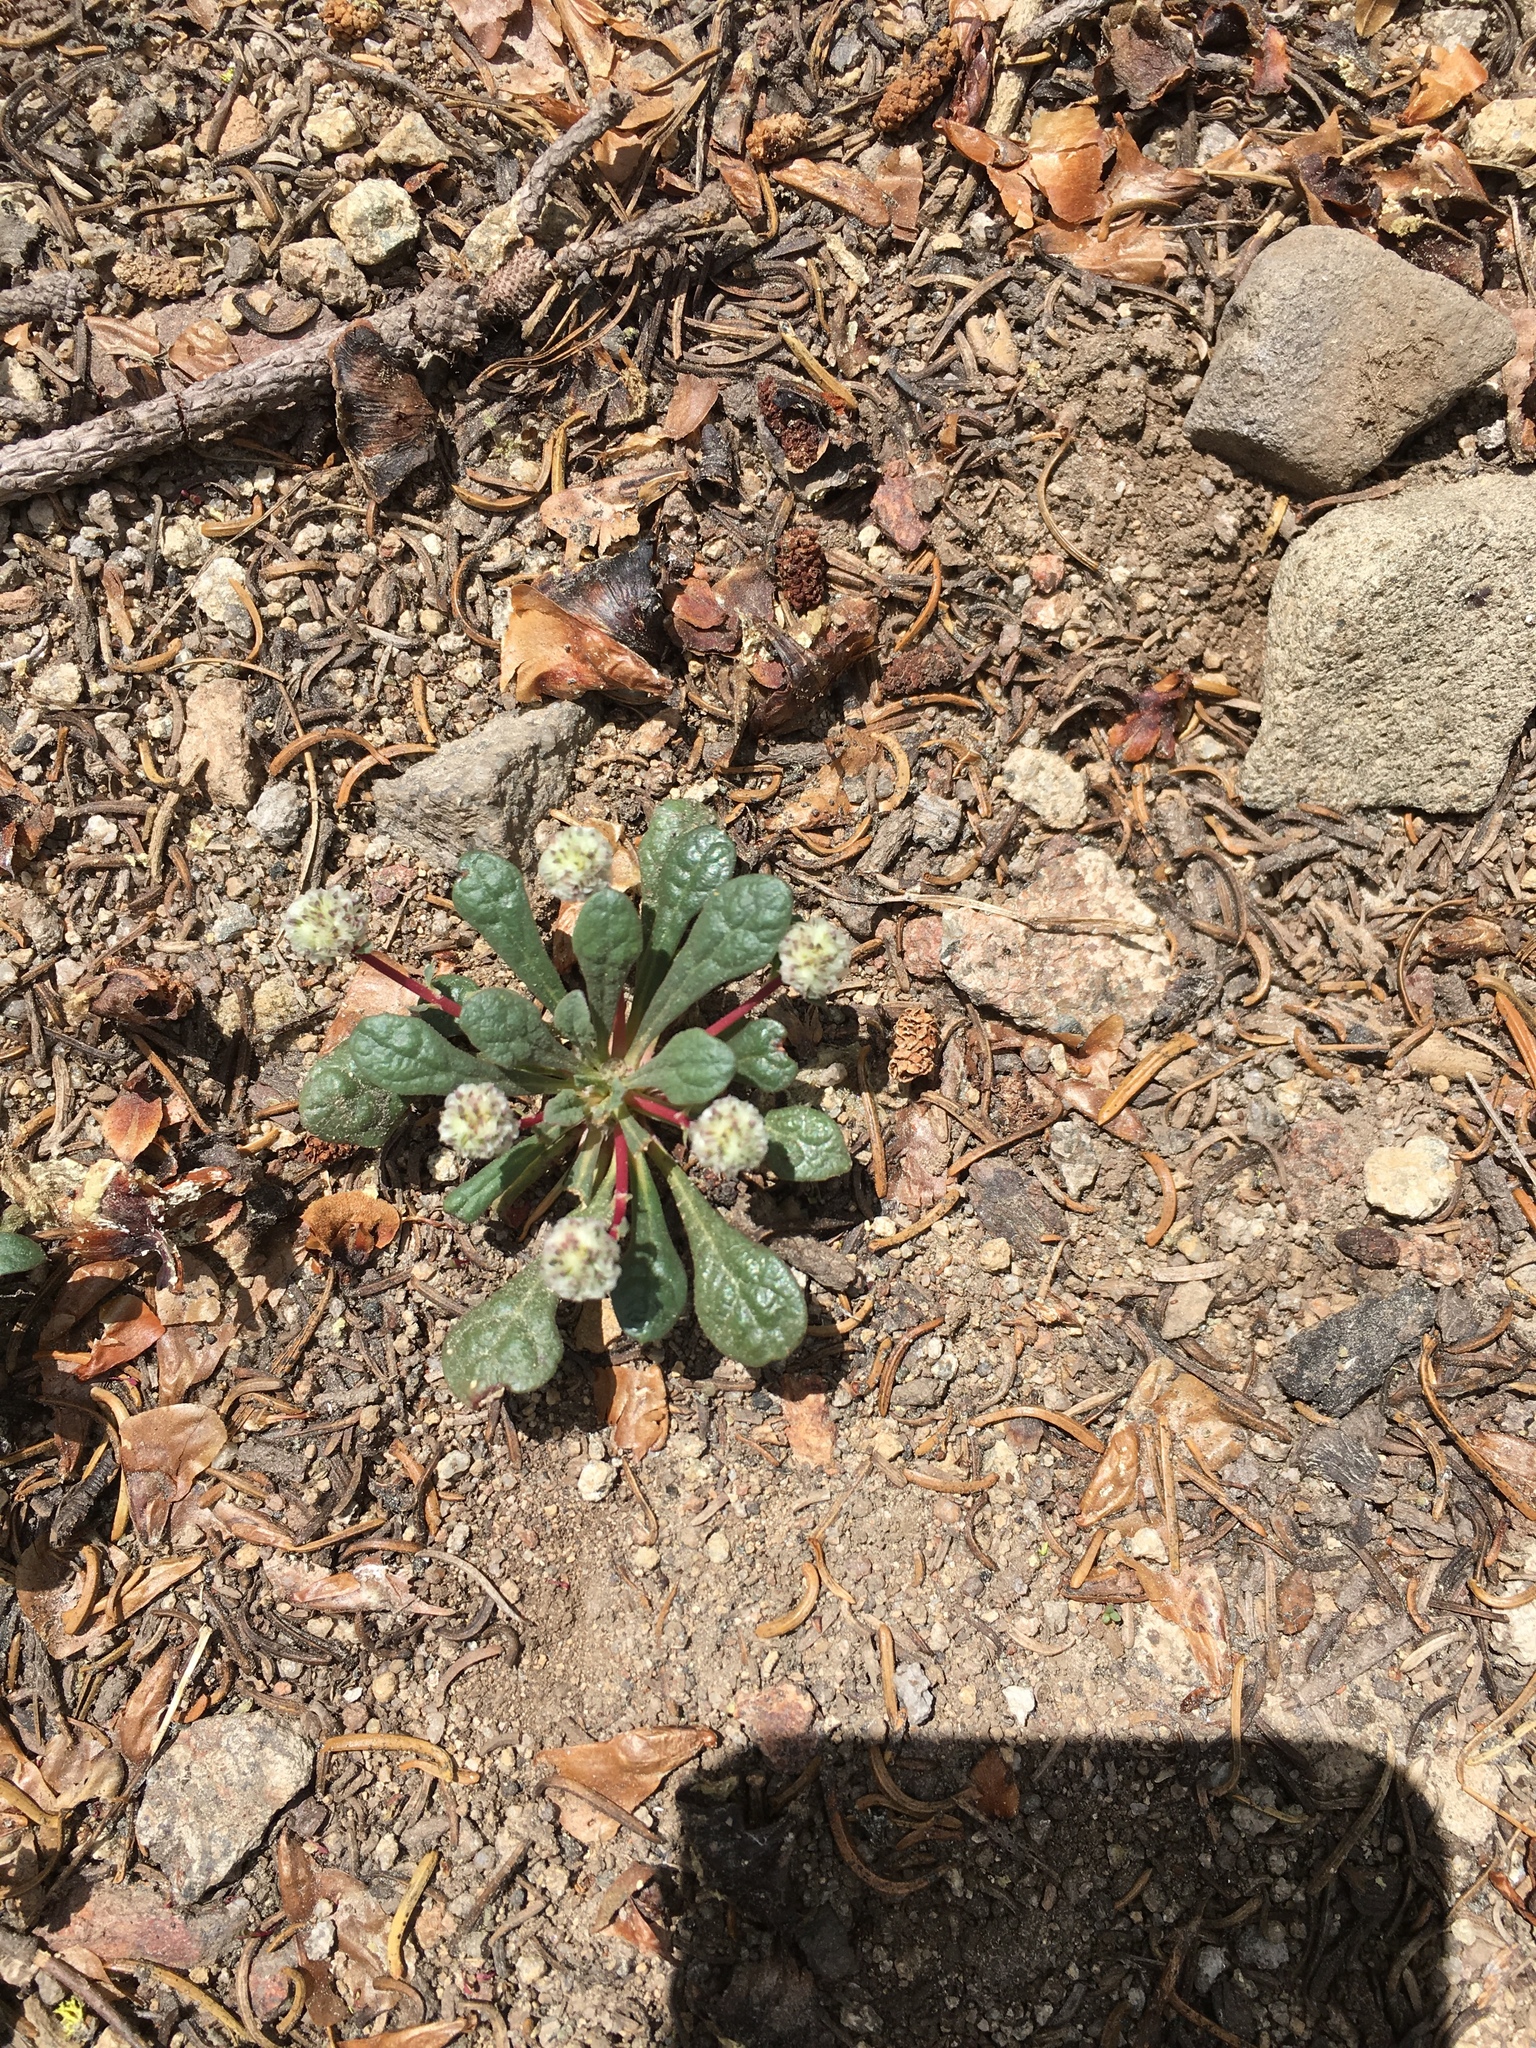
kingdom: Plantae
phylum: Tracheophyta
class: Magnoliopsida
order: Caryophyllales
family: Montiaceae
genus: Calyptridium
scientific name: Calyptridium monospermum
